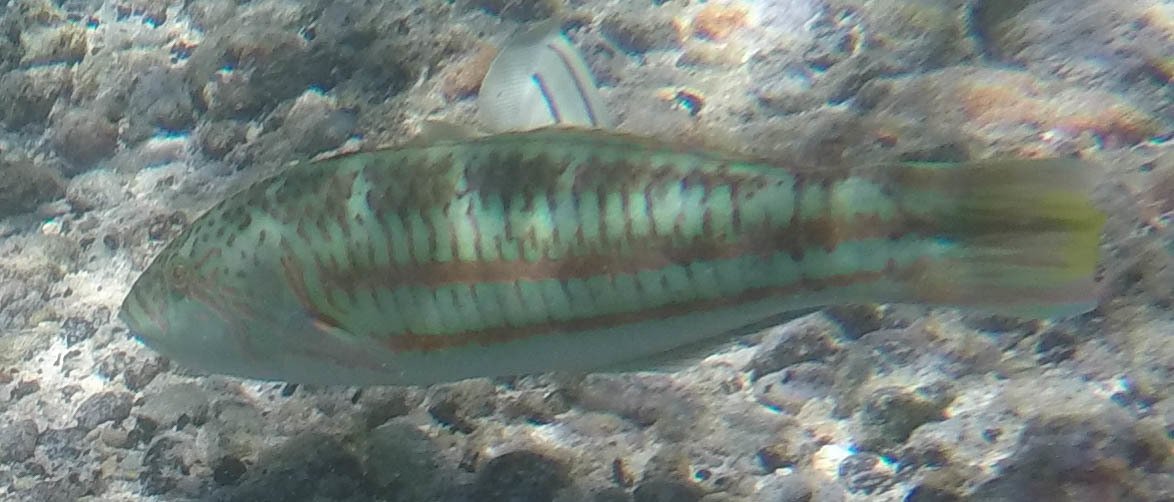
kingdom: Animalia
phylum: Chordata
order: Perciformes
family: Labridae
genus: Thalassoma
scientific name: Thalassoma trilobatum
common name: Christmas wrasse
